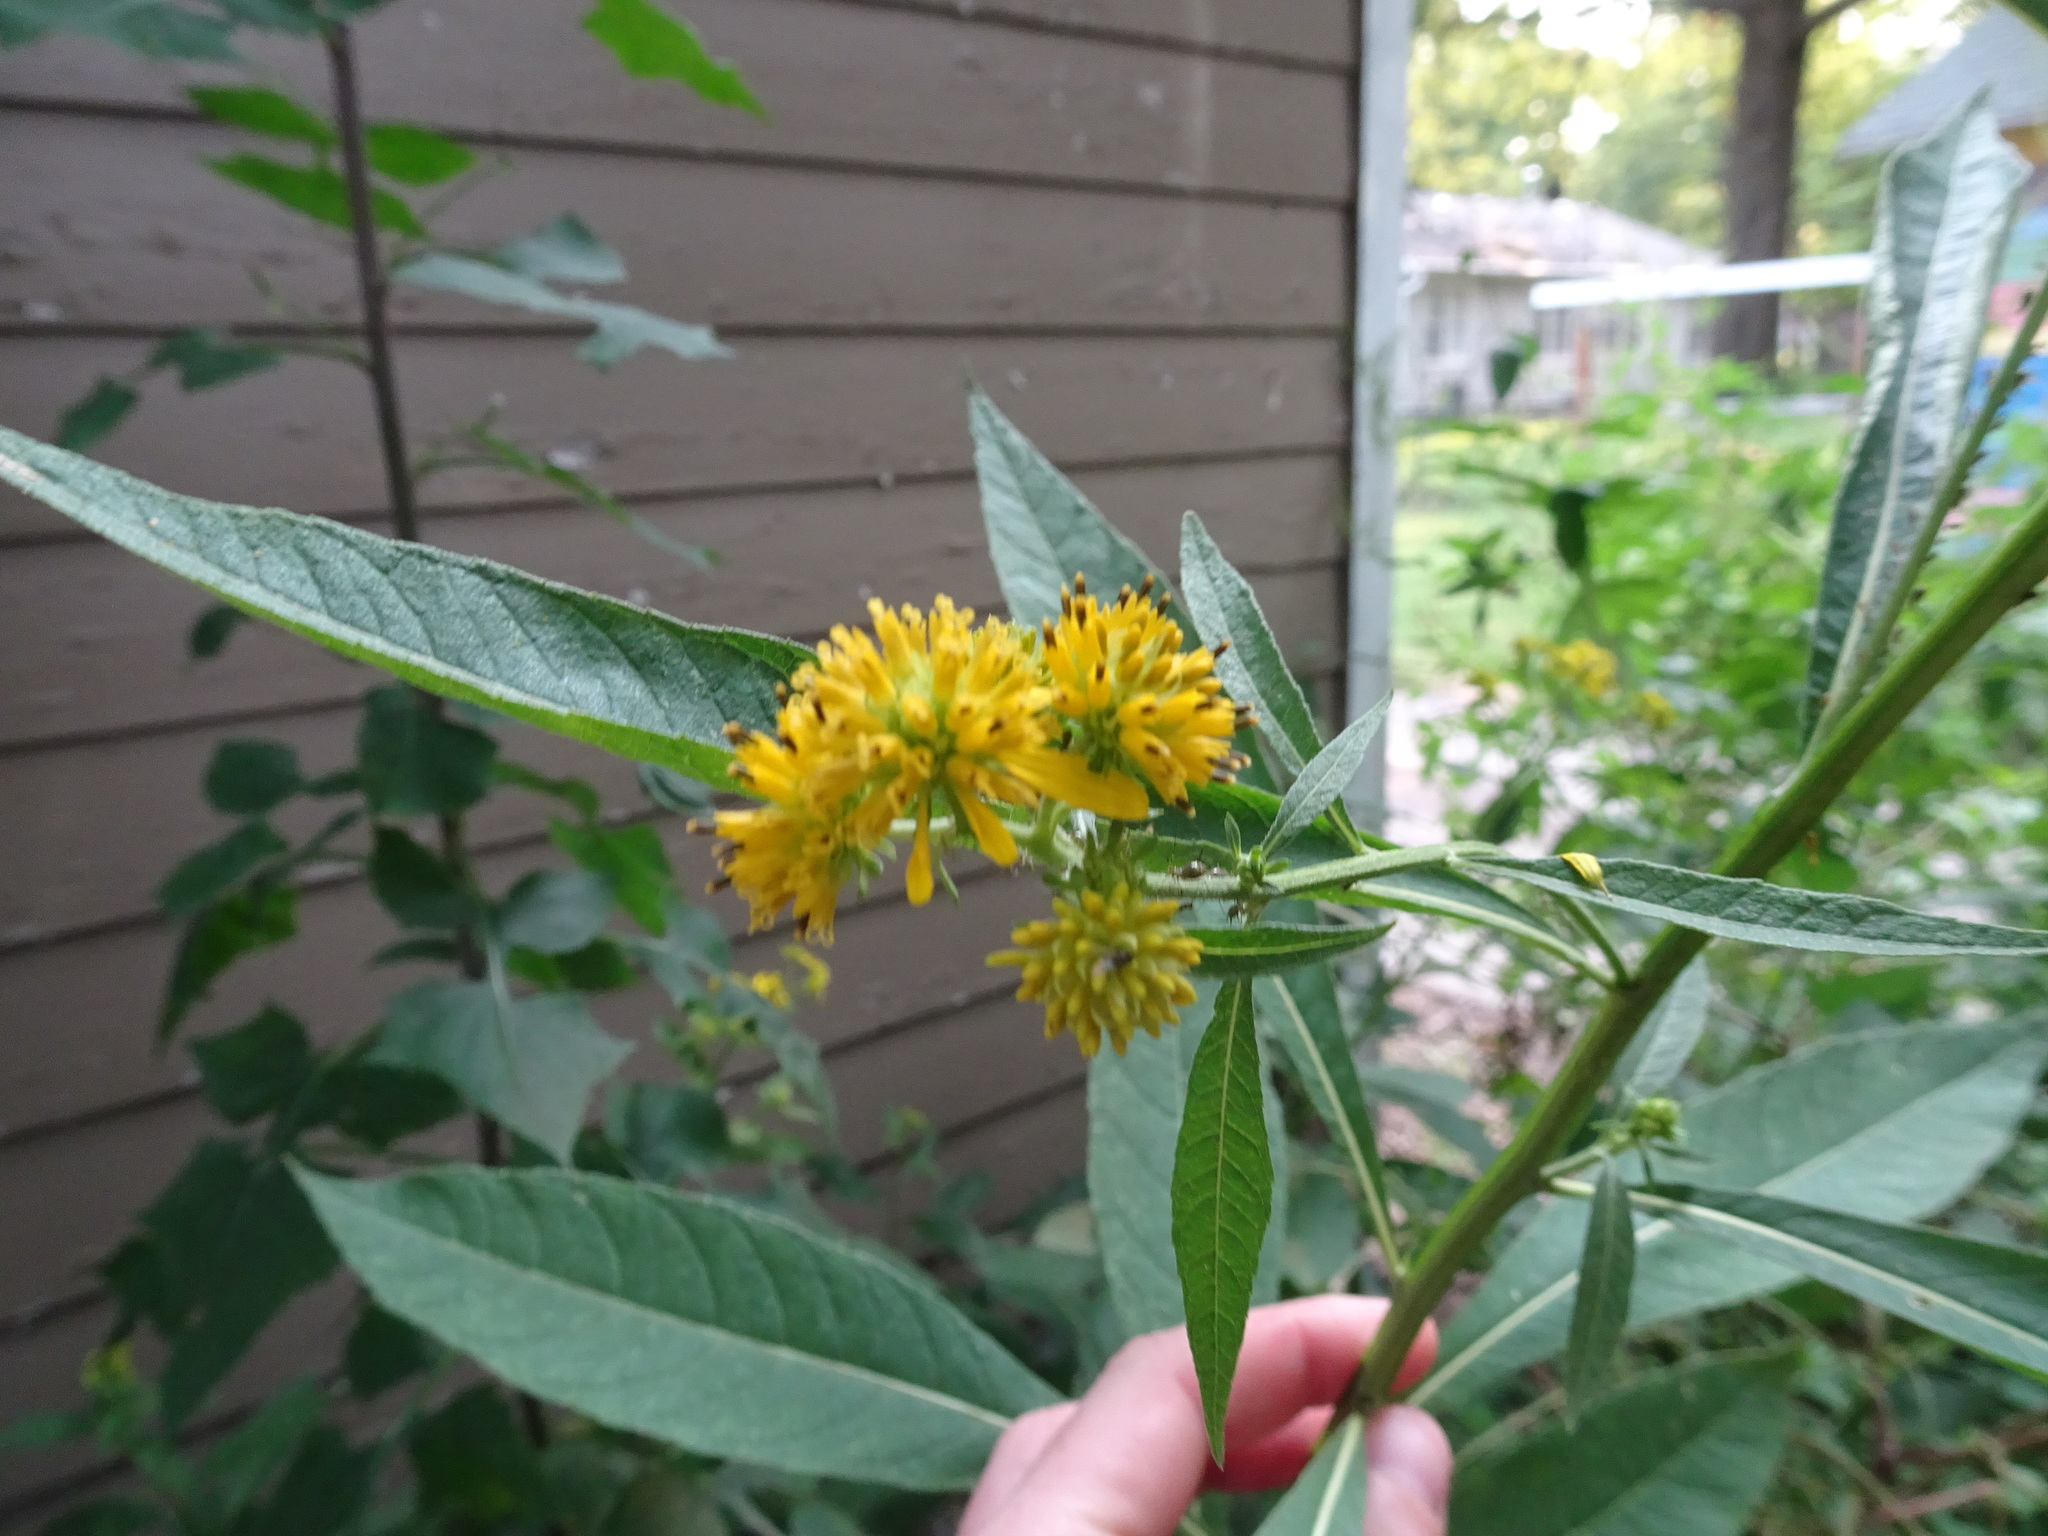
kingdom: Plantae
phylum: Tracheophyta
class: Magnoliopsida
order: Asterales
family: Asteraceae
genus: Verbesina
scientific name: Verbesina alternifolia
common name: Wingstem
